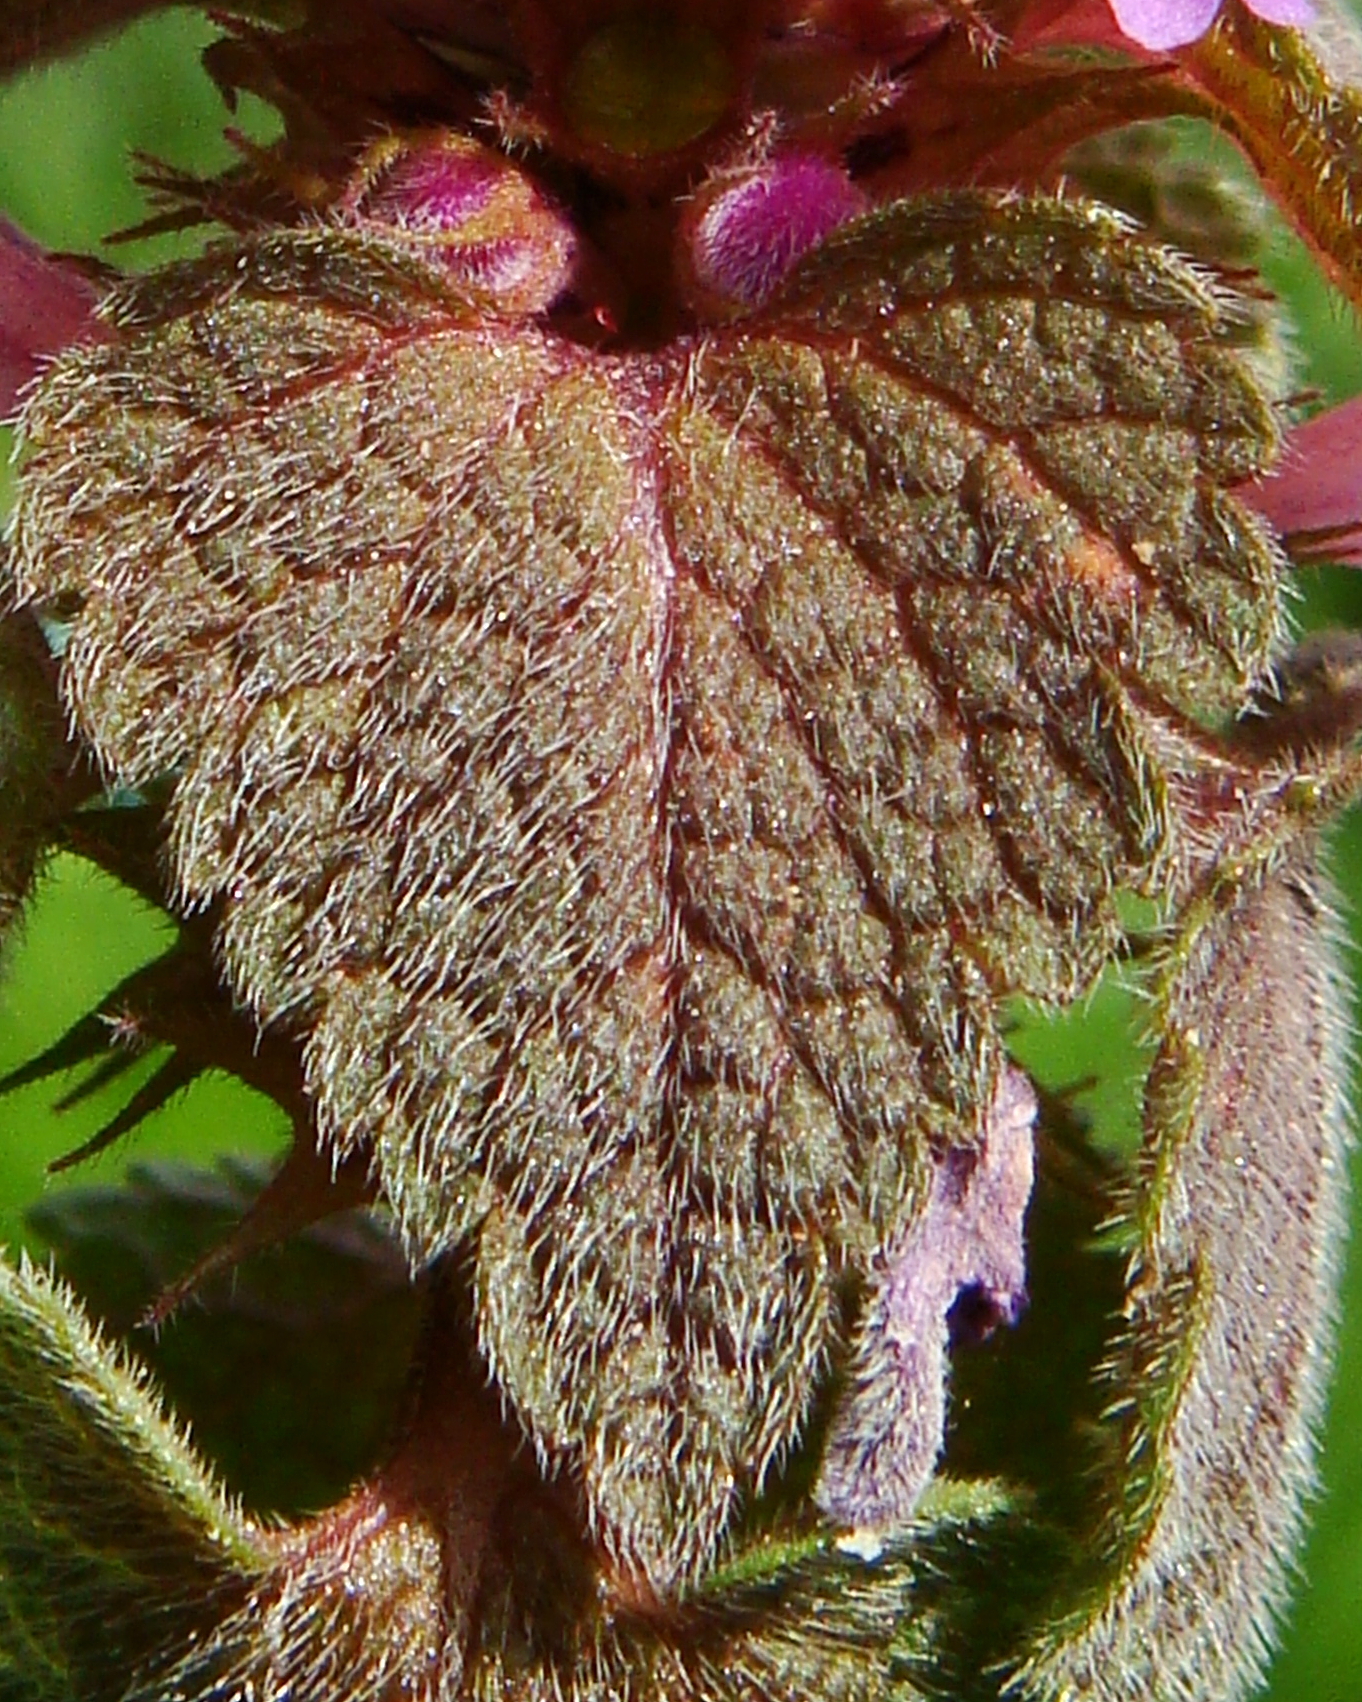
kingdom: Plantae
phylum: Tracheophyta
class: Magnoliopsida
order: Lamiales
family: Lamiaceae
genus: Lamium
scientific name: Lamium purpureum
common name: Red dead-nettle
